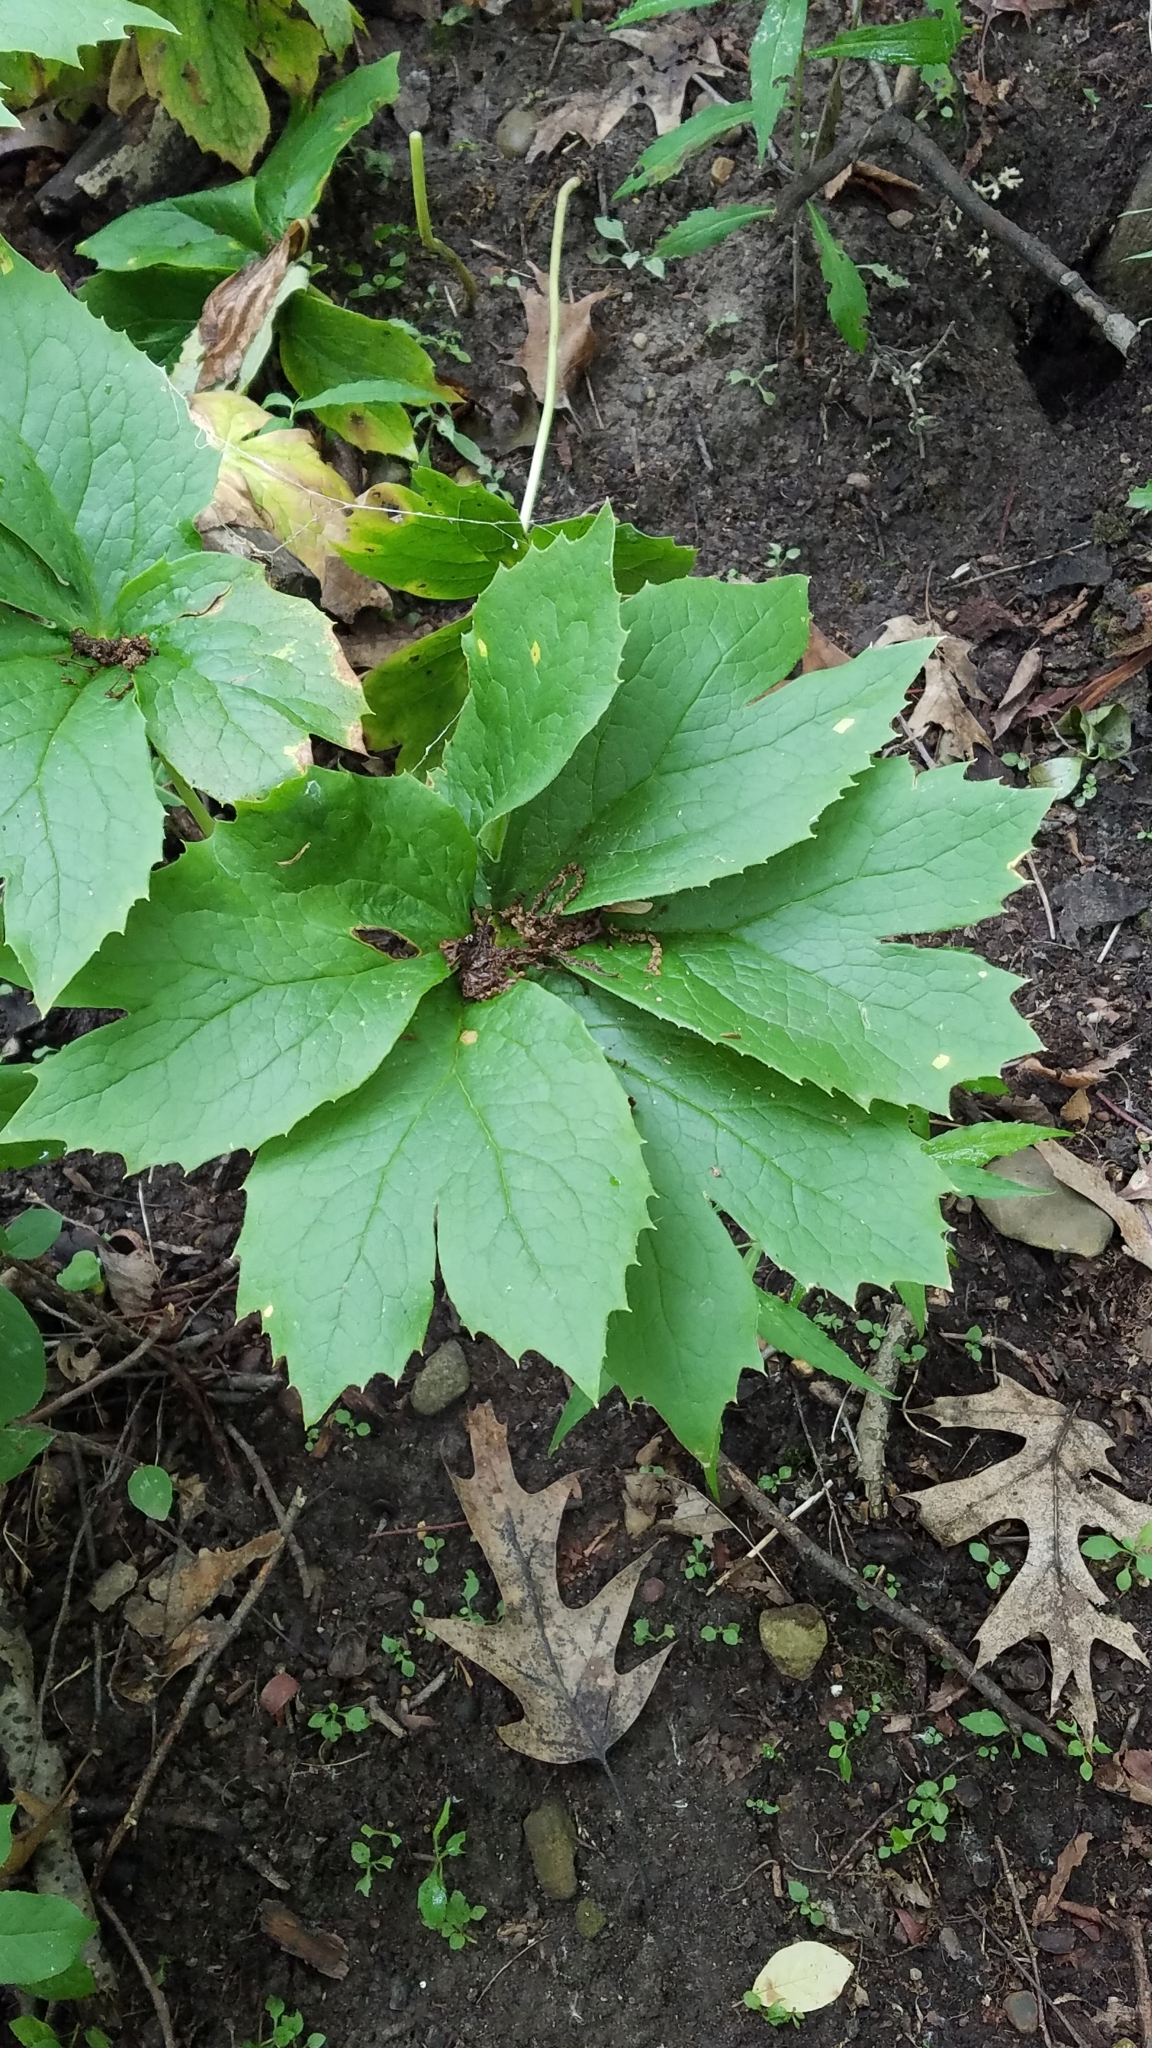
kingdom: Plantae
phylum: Tracheophyta
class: Magnoliopsida
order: Ranunculales
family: Berberidaceae
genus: Podophyllum
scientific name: Podophyllum peltatum
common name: Wild mandrake
